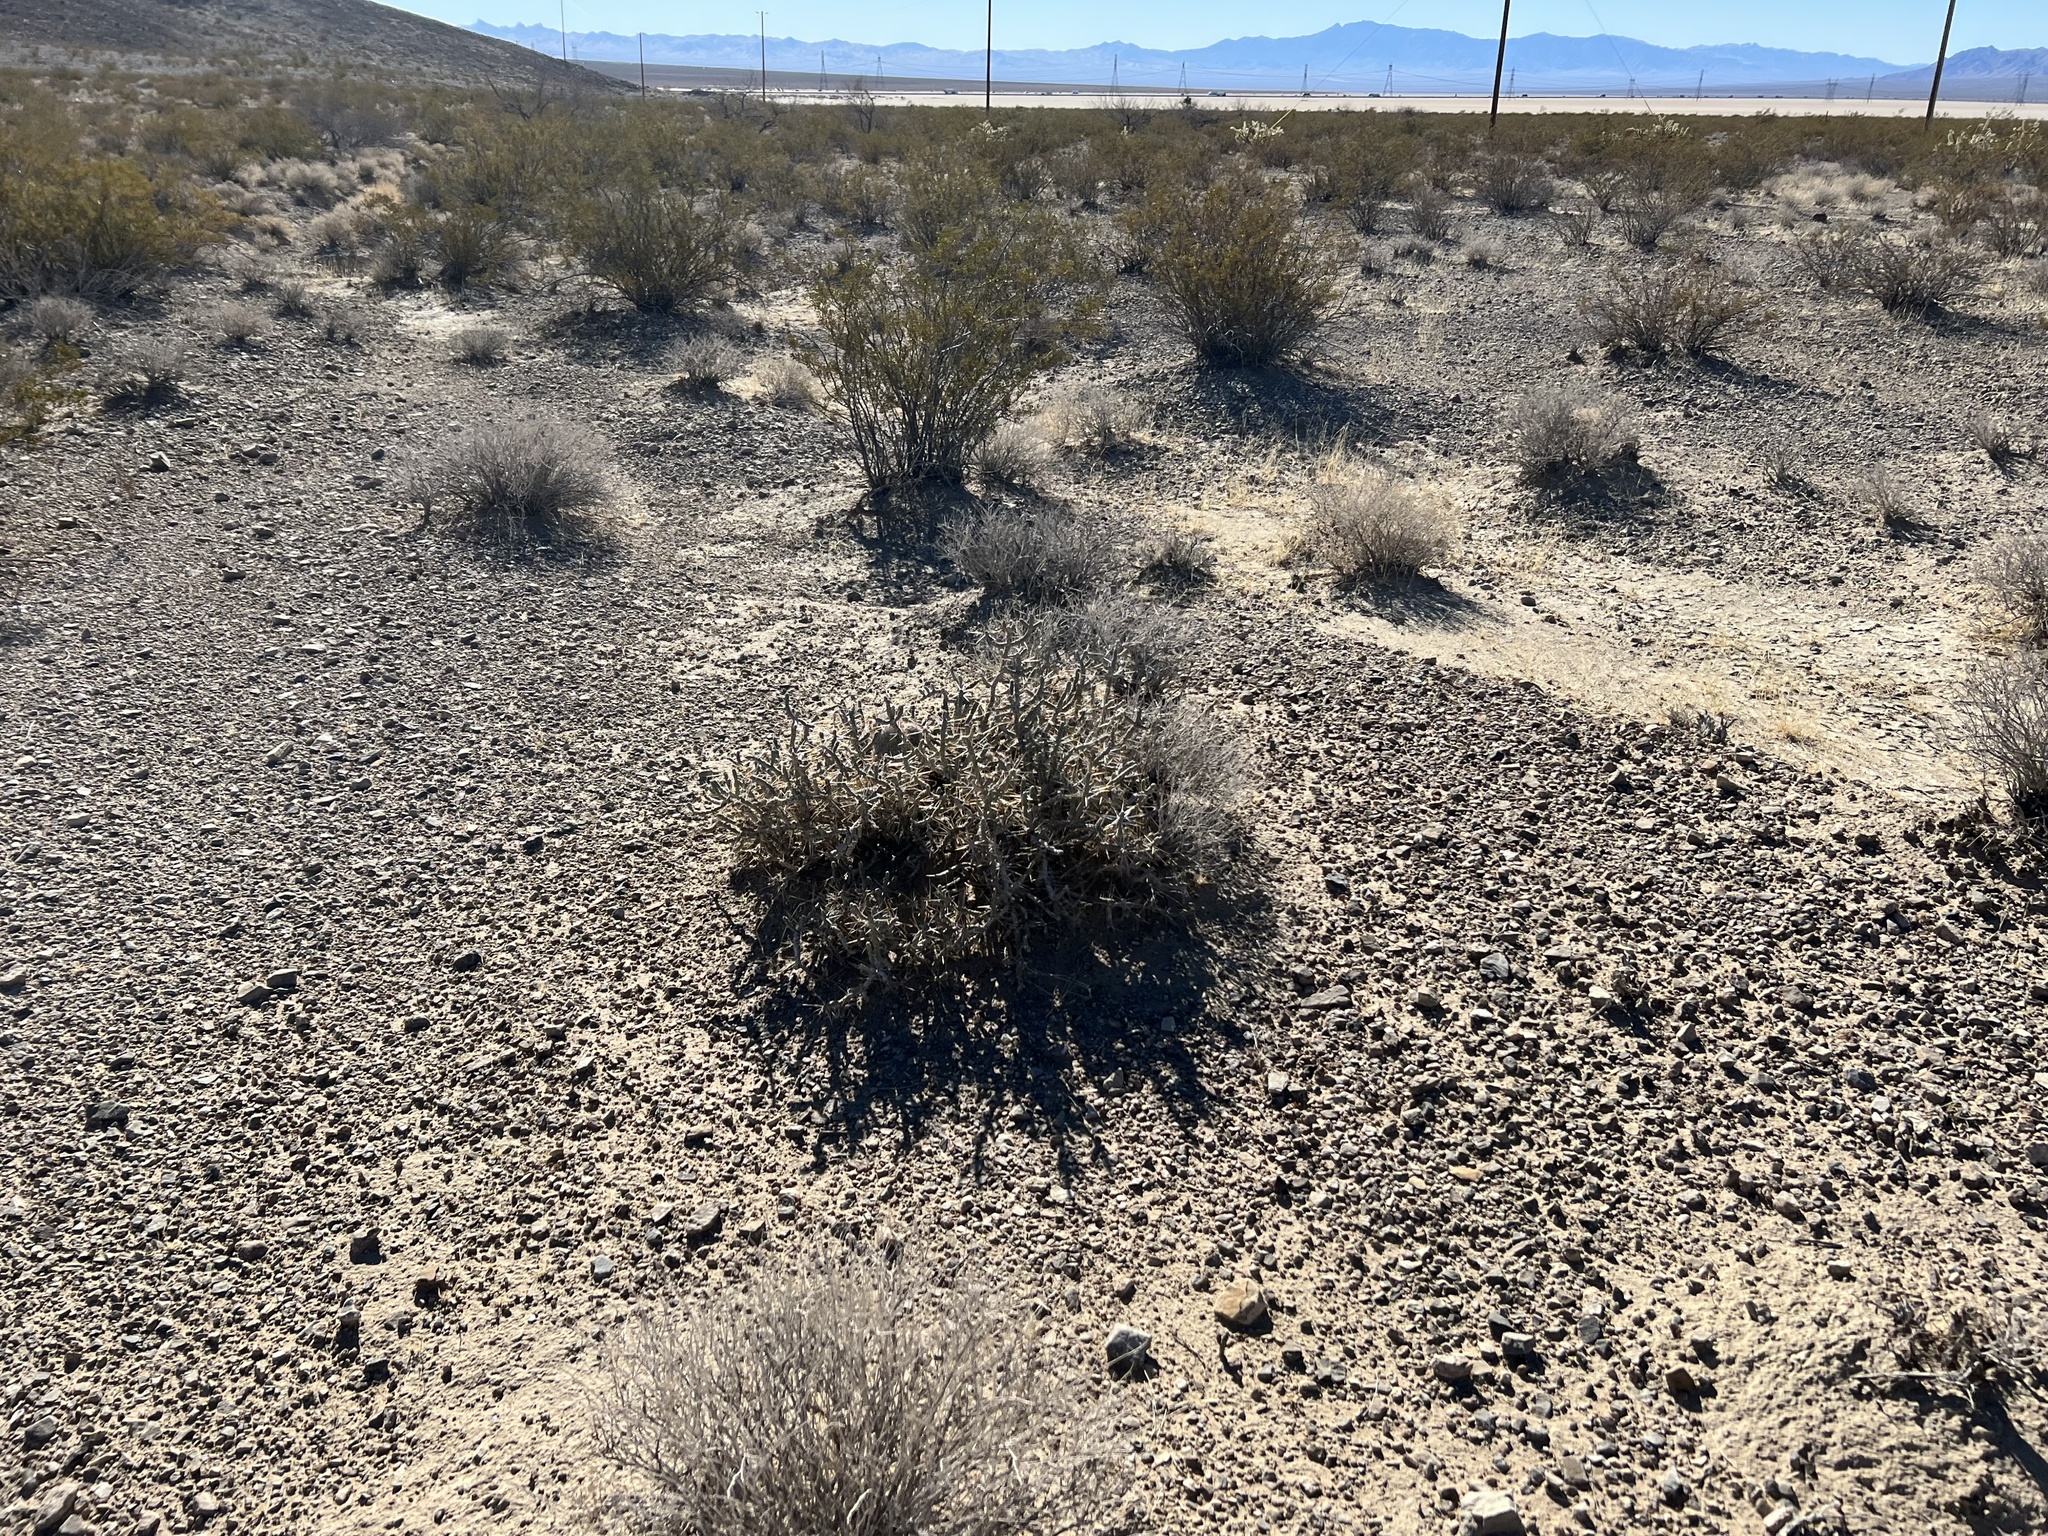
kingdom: Plantae
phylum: Tracheophyta
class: Magnoliopsida
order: Caryophyllales
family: Cactaceae
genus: Cylindropuntia
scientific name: Cylindropuntia ramosissima
